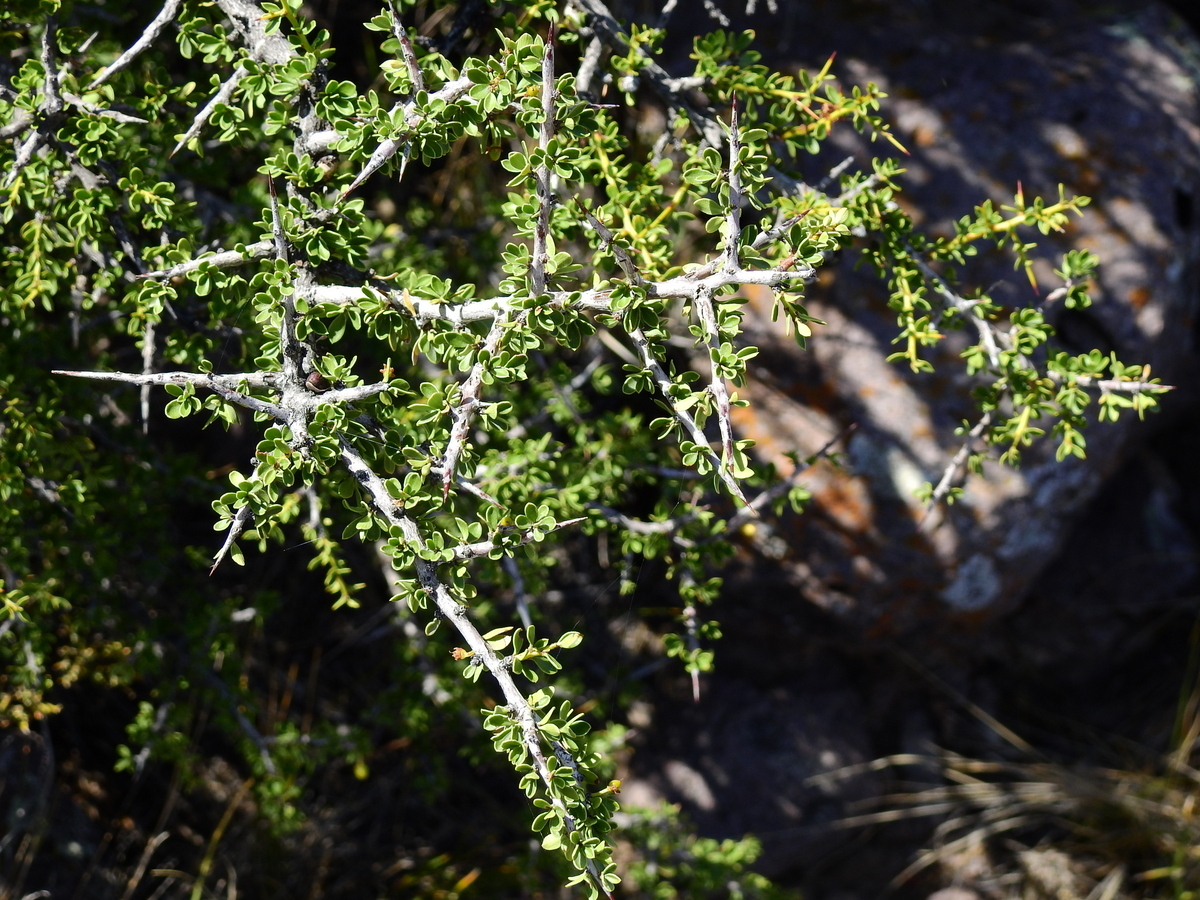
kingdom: Plantae
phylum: Tracheophyta
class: Magnoliopsida
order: Rosales
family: Rhamnaceae
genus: Condalia
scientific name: Condalia microphylla
